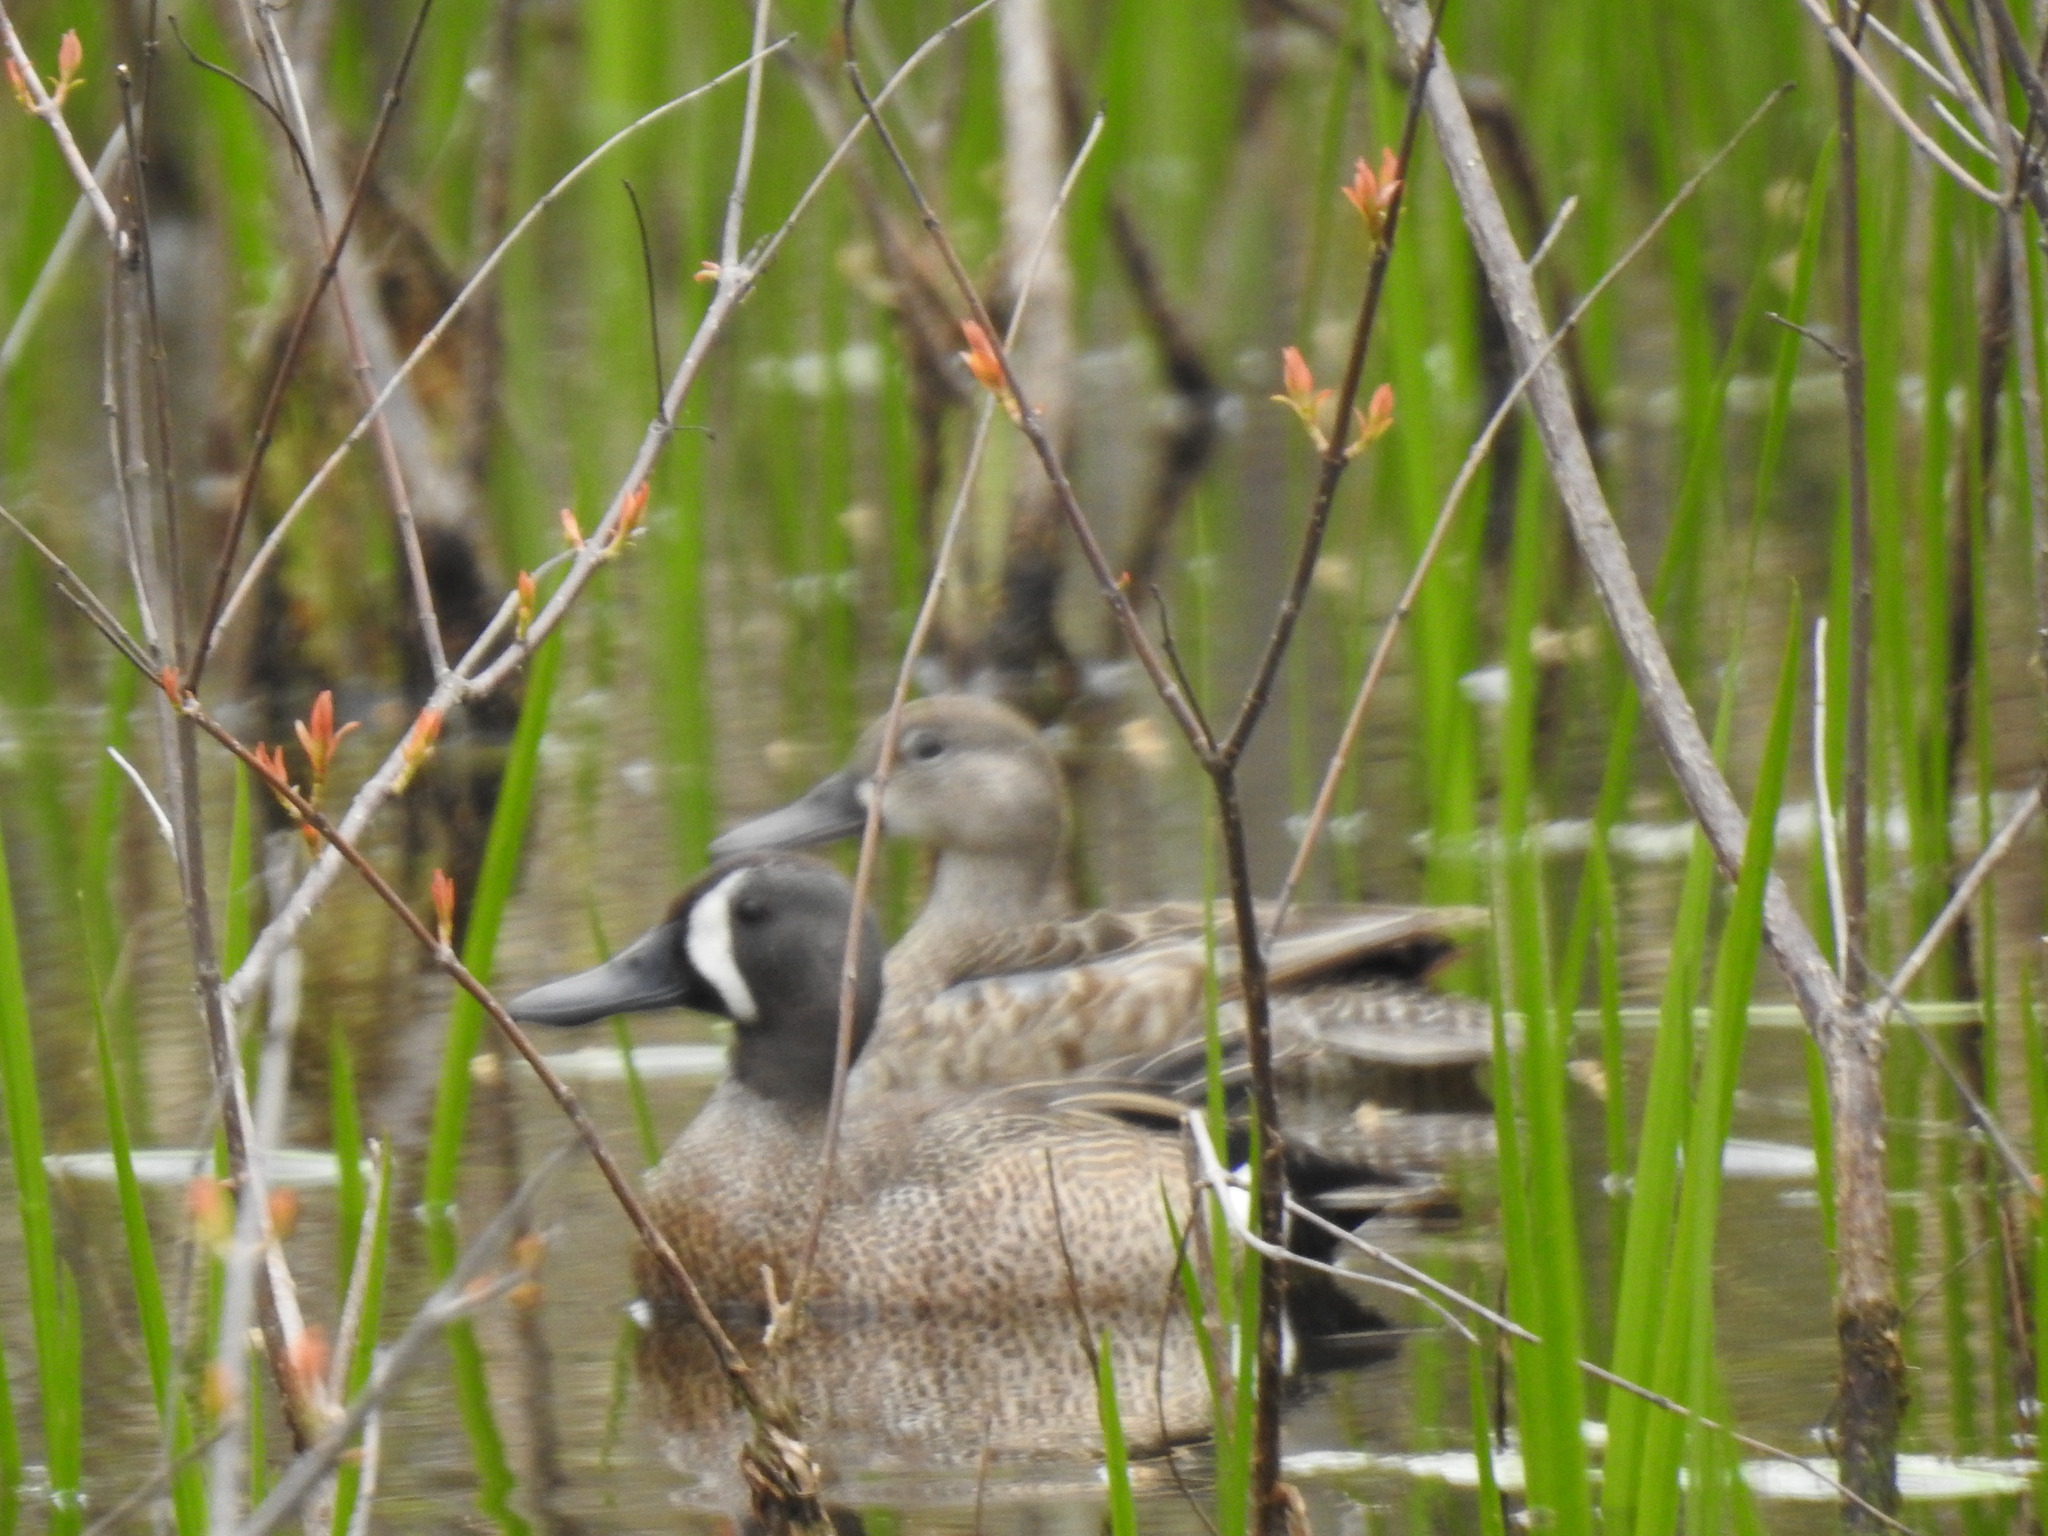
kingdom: Animalia
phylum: Chordata
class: Aves
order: Anseriformes
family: Anatidae
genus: Spatula
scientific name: Spatula discors
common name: Blue-winged teal
